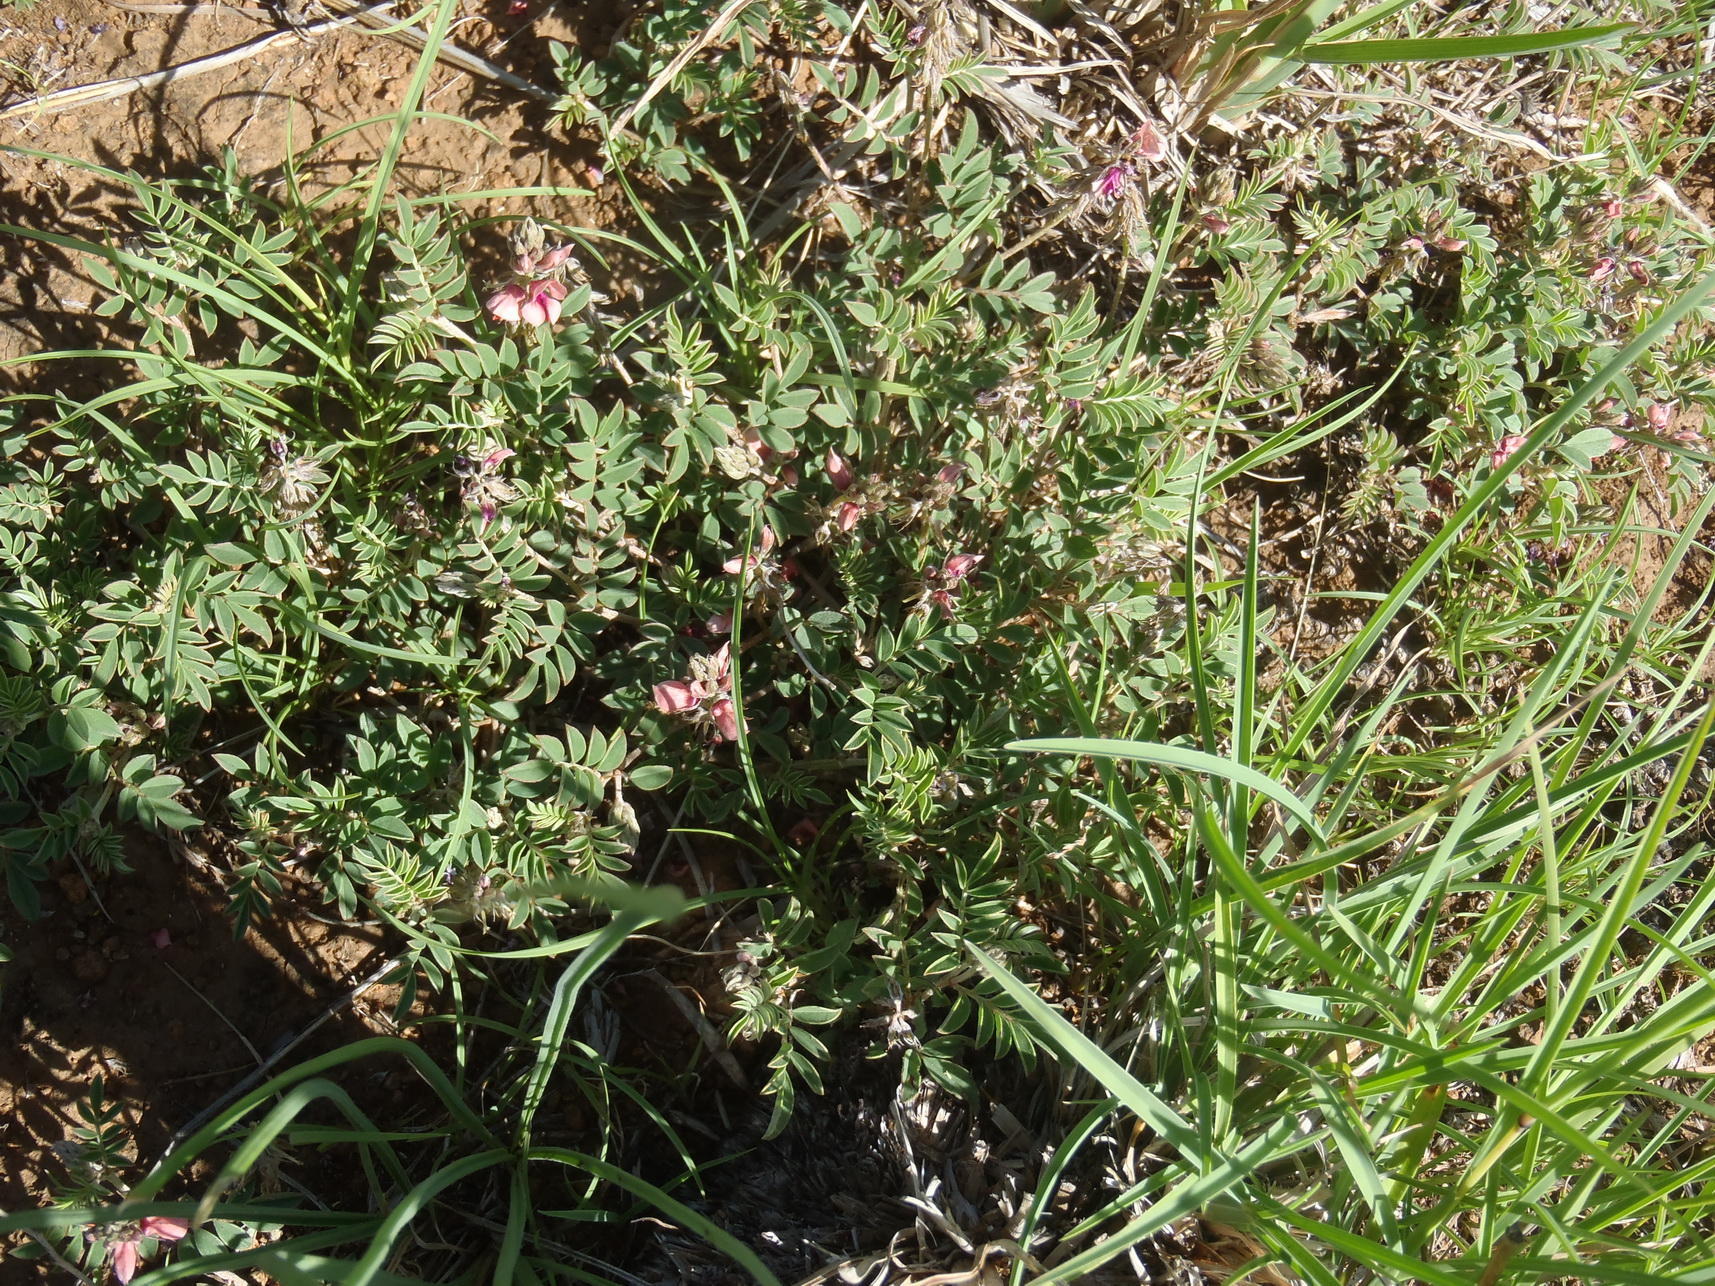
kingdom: Plantae
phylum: Tracheophyta
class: Magnoliopsida
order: Fabales
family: Fabaceae
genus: Indigofera
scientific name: Indigofera alternans
